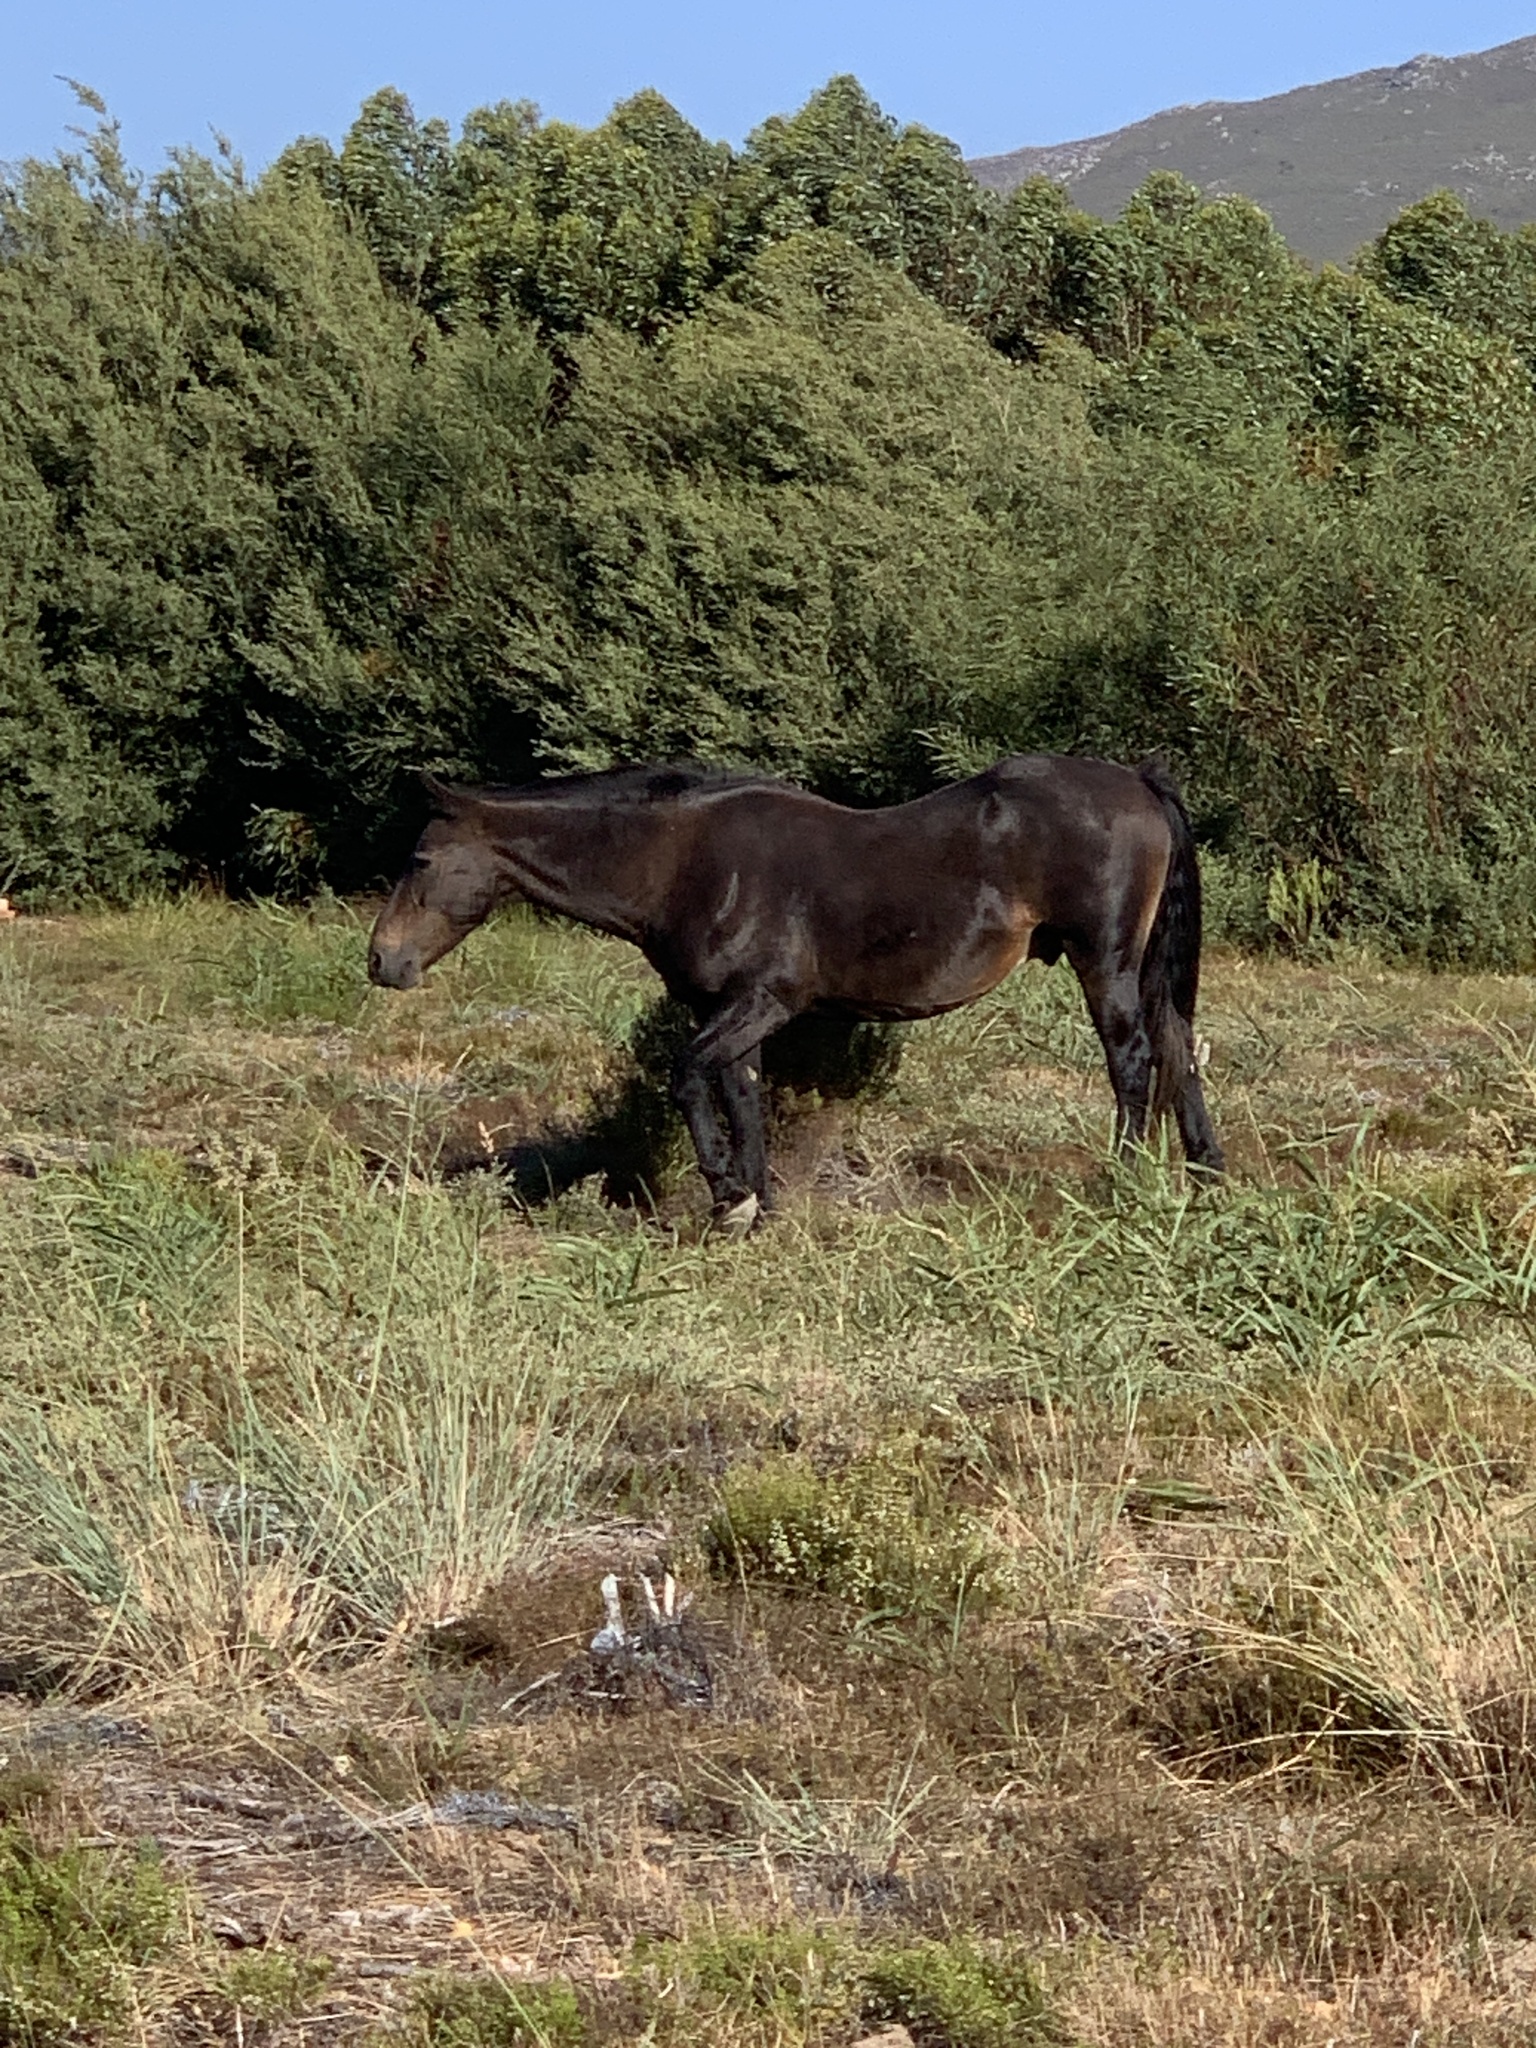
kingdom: Animalia
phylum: Chordata
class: Mammalia
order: Perissodactyla
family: Equidae
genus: Equus
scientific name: Equus caballus
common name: Horse
